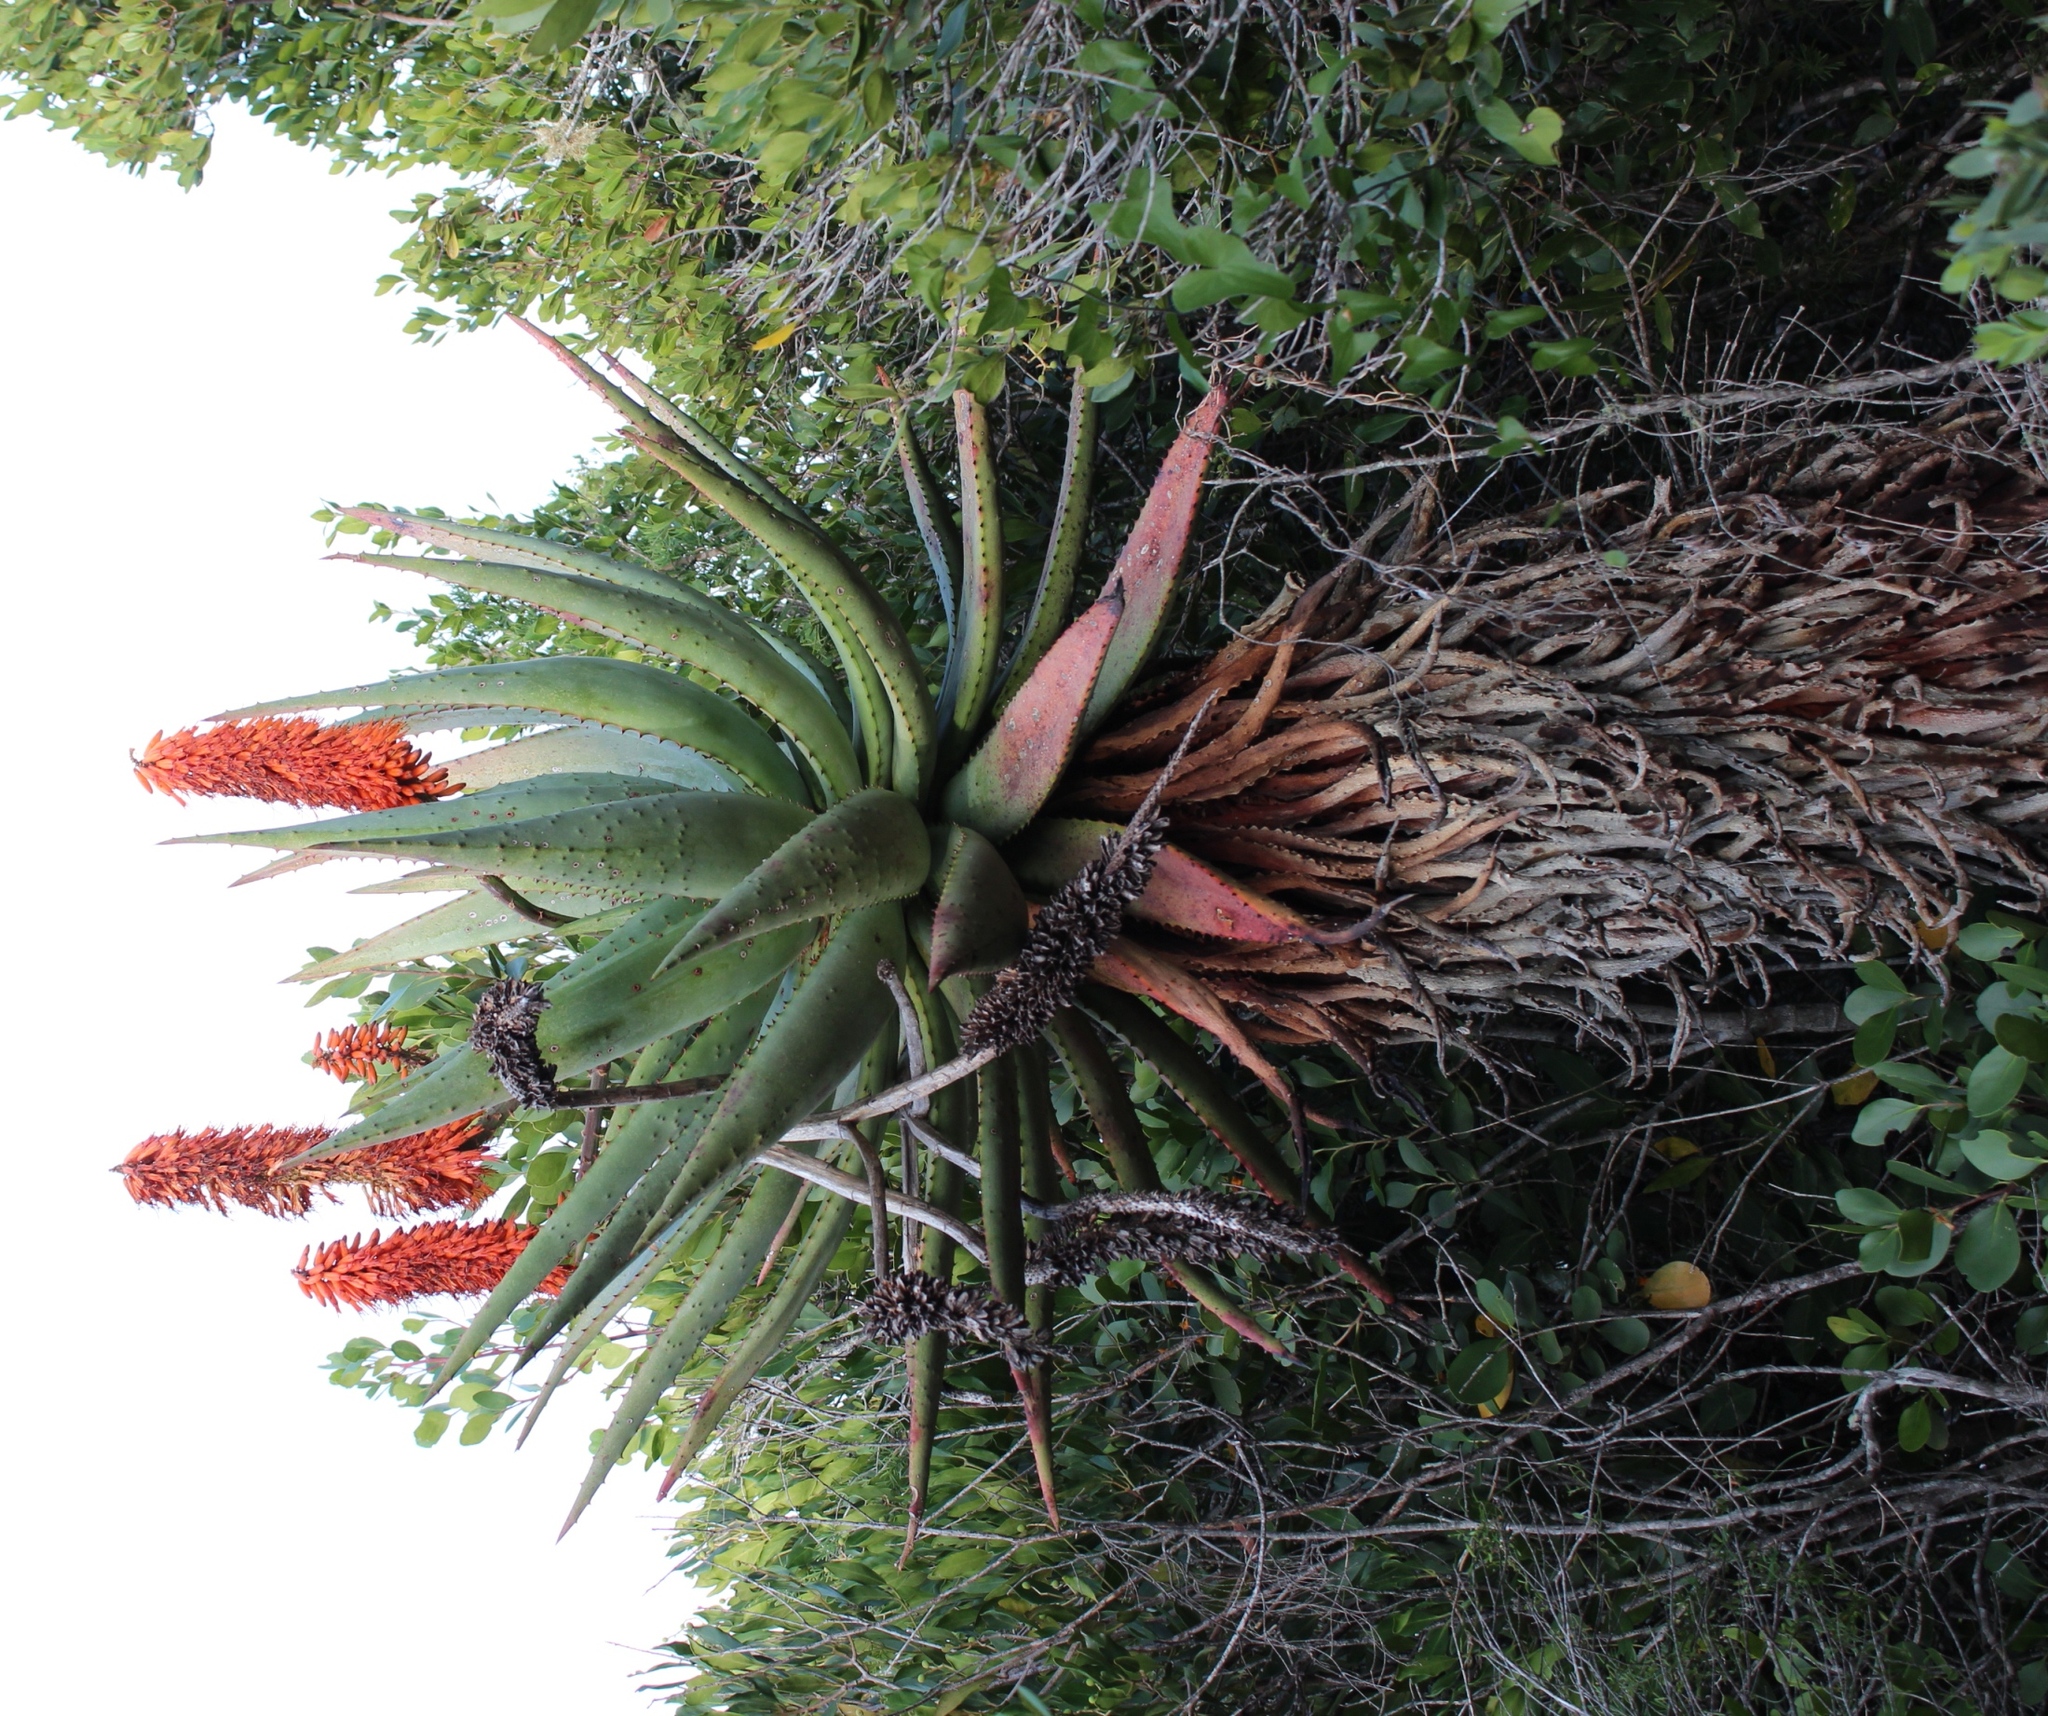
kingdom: Plantae
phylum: Tracheophyta
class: Liliopsida
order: Asparagales
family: Asphodelaceae
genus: Aloe
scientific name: Aloe ferox
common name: Bitter aloe
